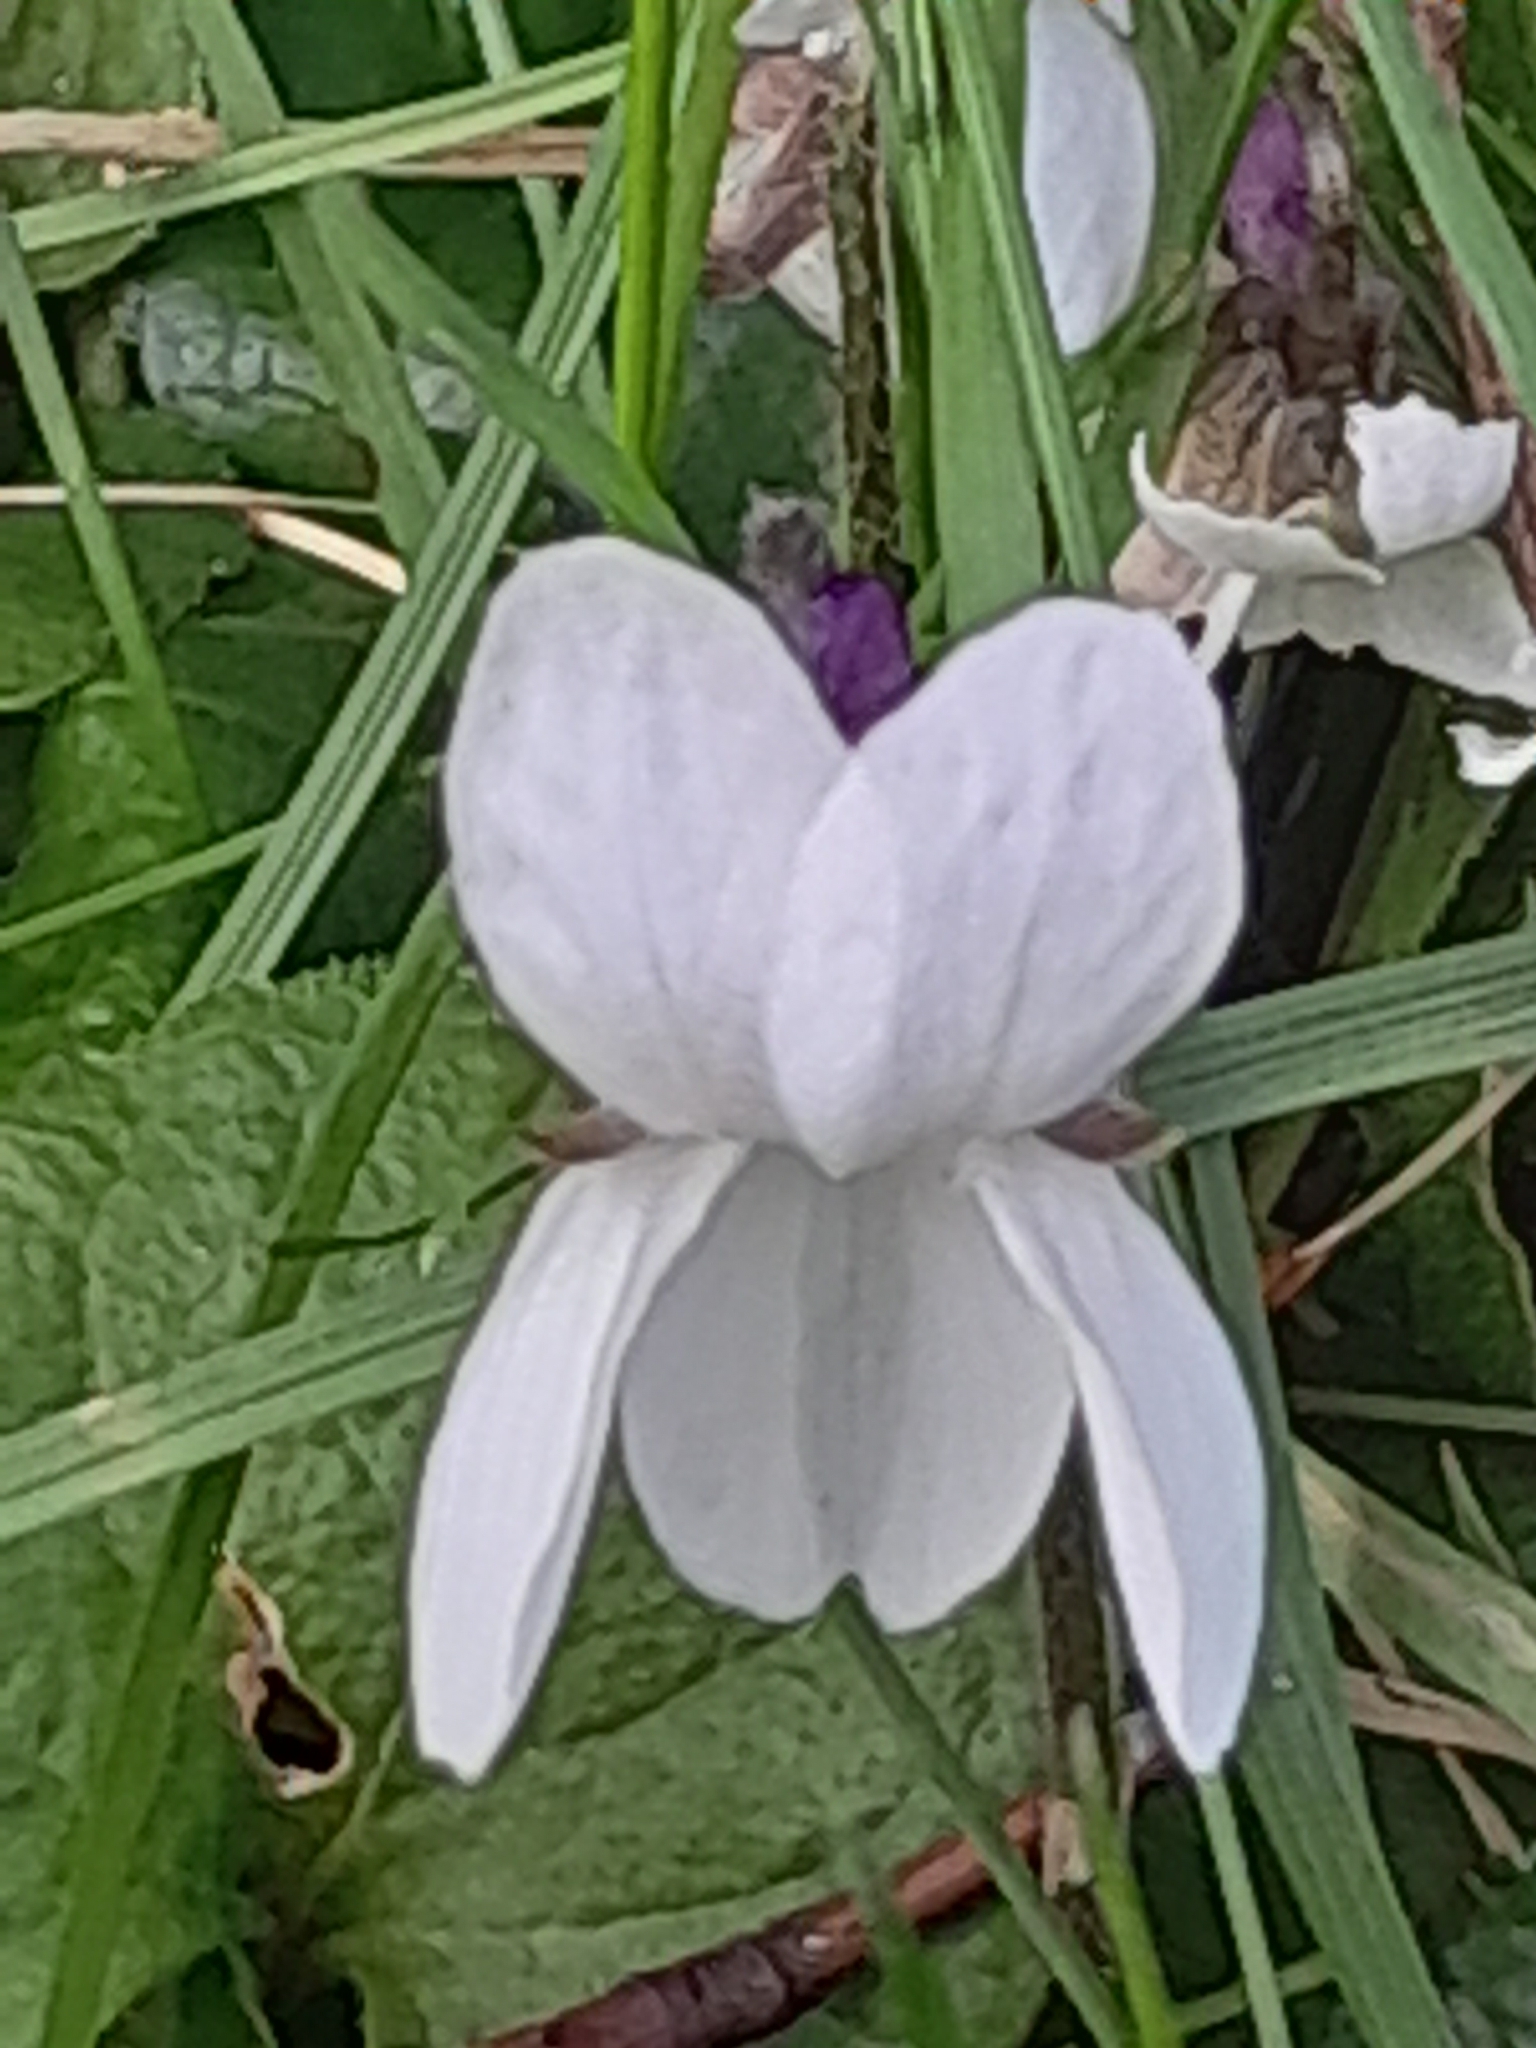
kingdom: Plantae
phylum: Tracheophyta
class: Magnoliopsida
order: Malpighiales
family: Violaceae
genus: Viola
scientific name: Viola odorata
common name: Sweet violet
